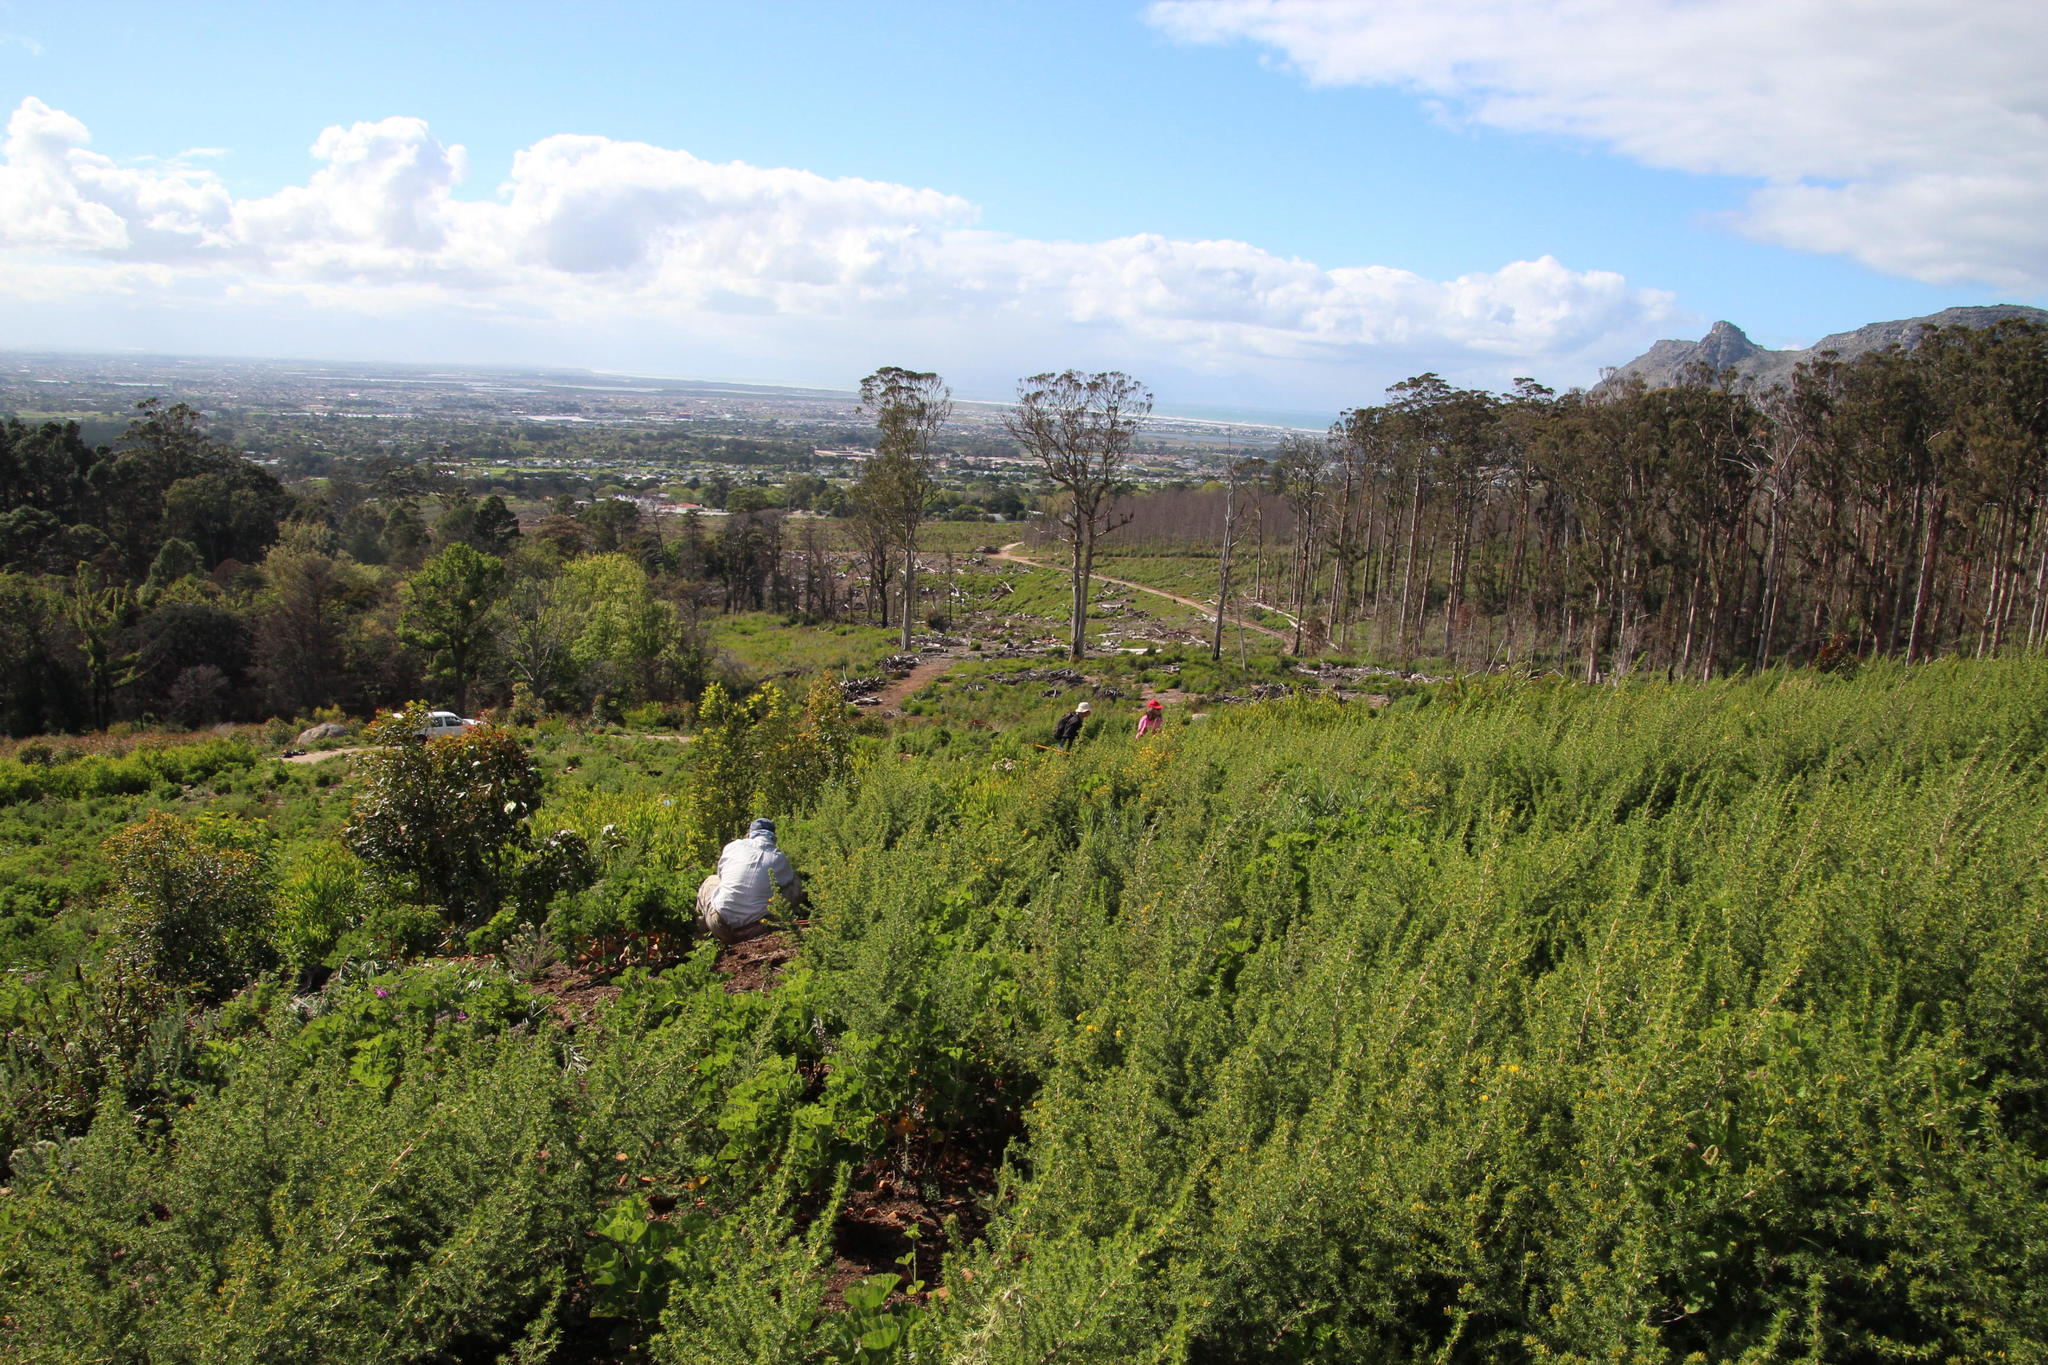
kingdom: Plantae
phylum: Tracheophyta
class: Magnoliopsida
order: Fabales
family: Fabaceae
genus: Aspalathus
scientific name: Aspalathus astroites
